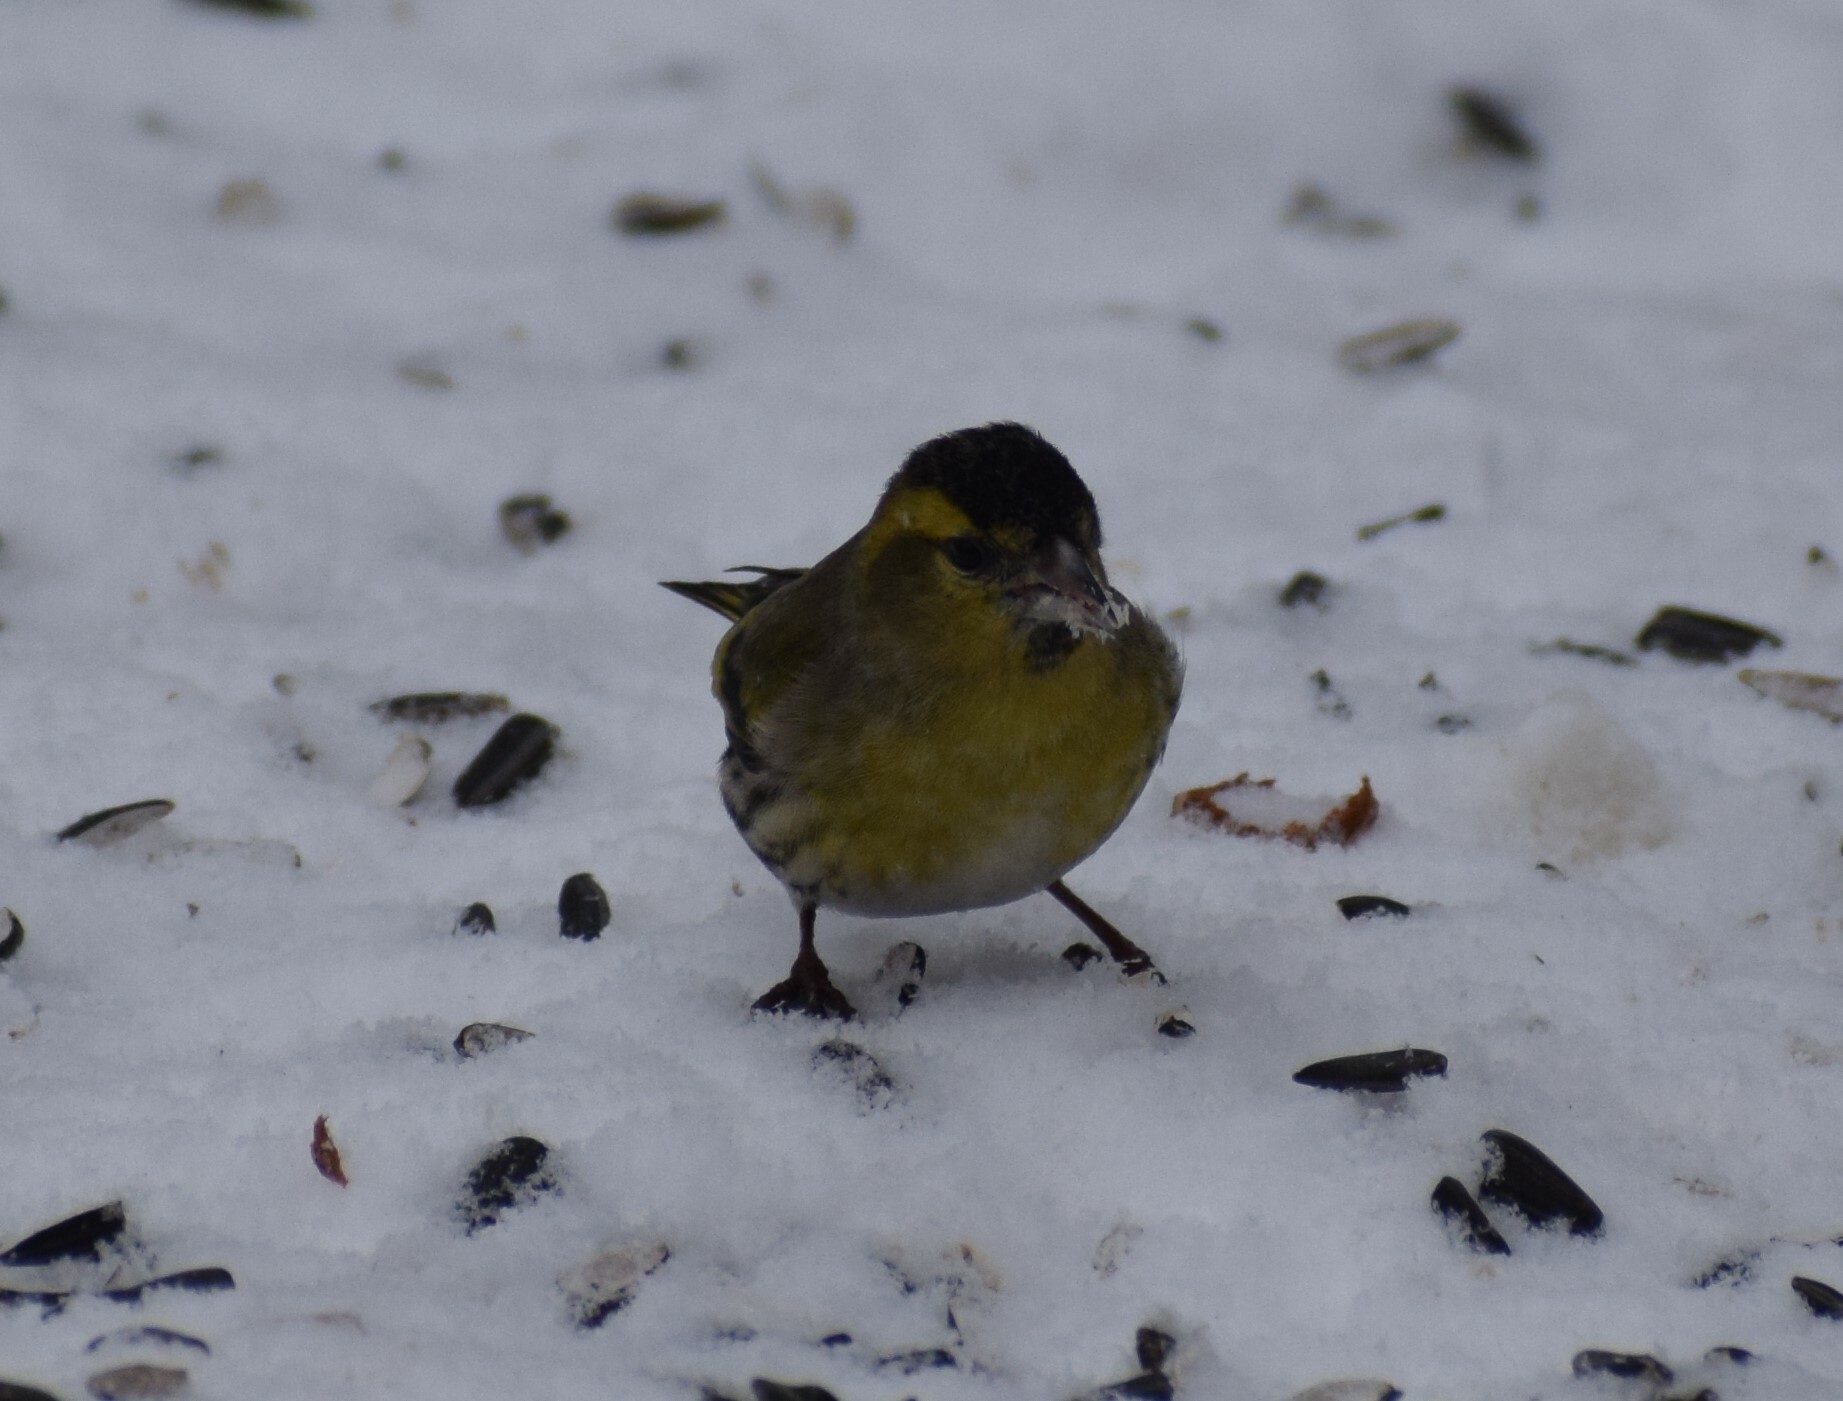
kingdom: Animalia
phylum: Chordata
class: Aves
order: Passeriformes
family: Fringillidae
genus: Spinus
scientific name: Spinus spinus
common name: Eurasian siskin
